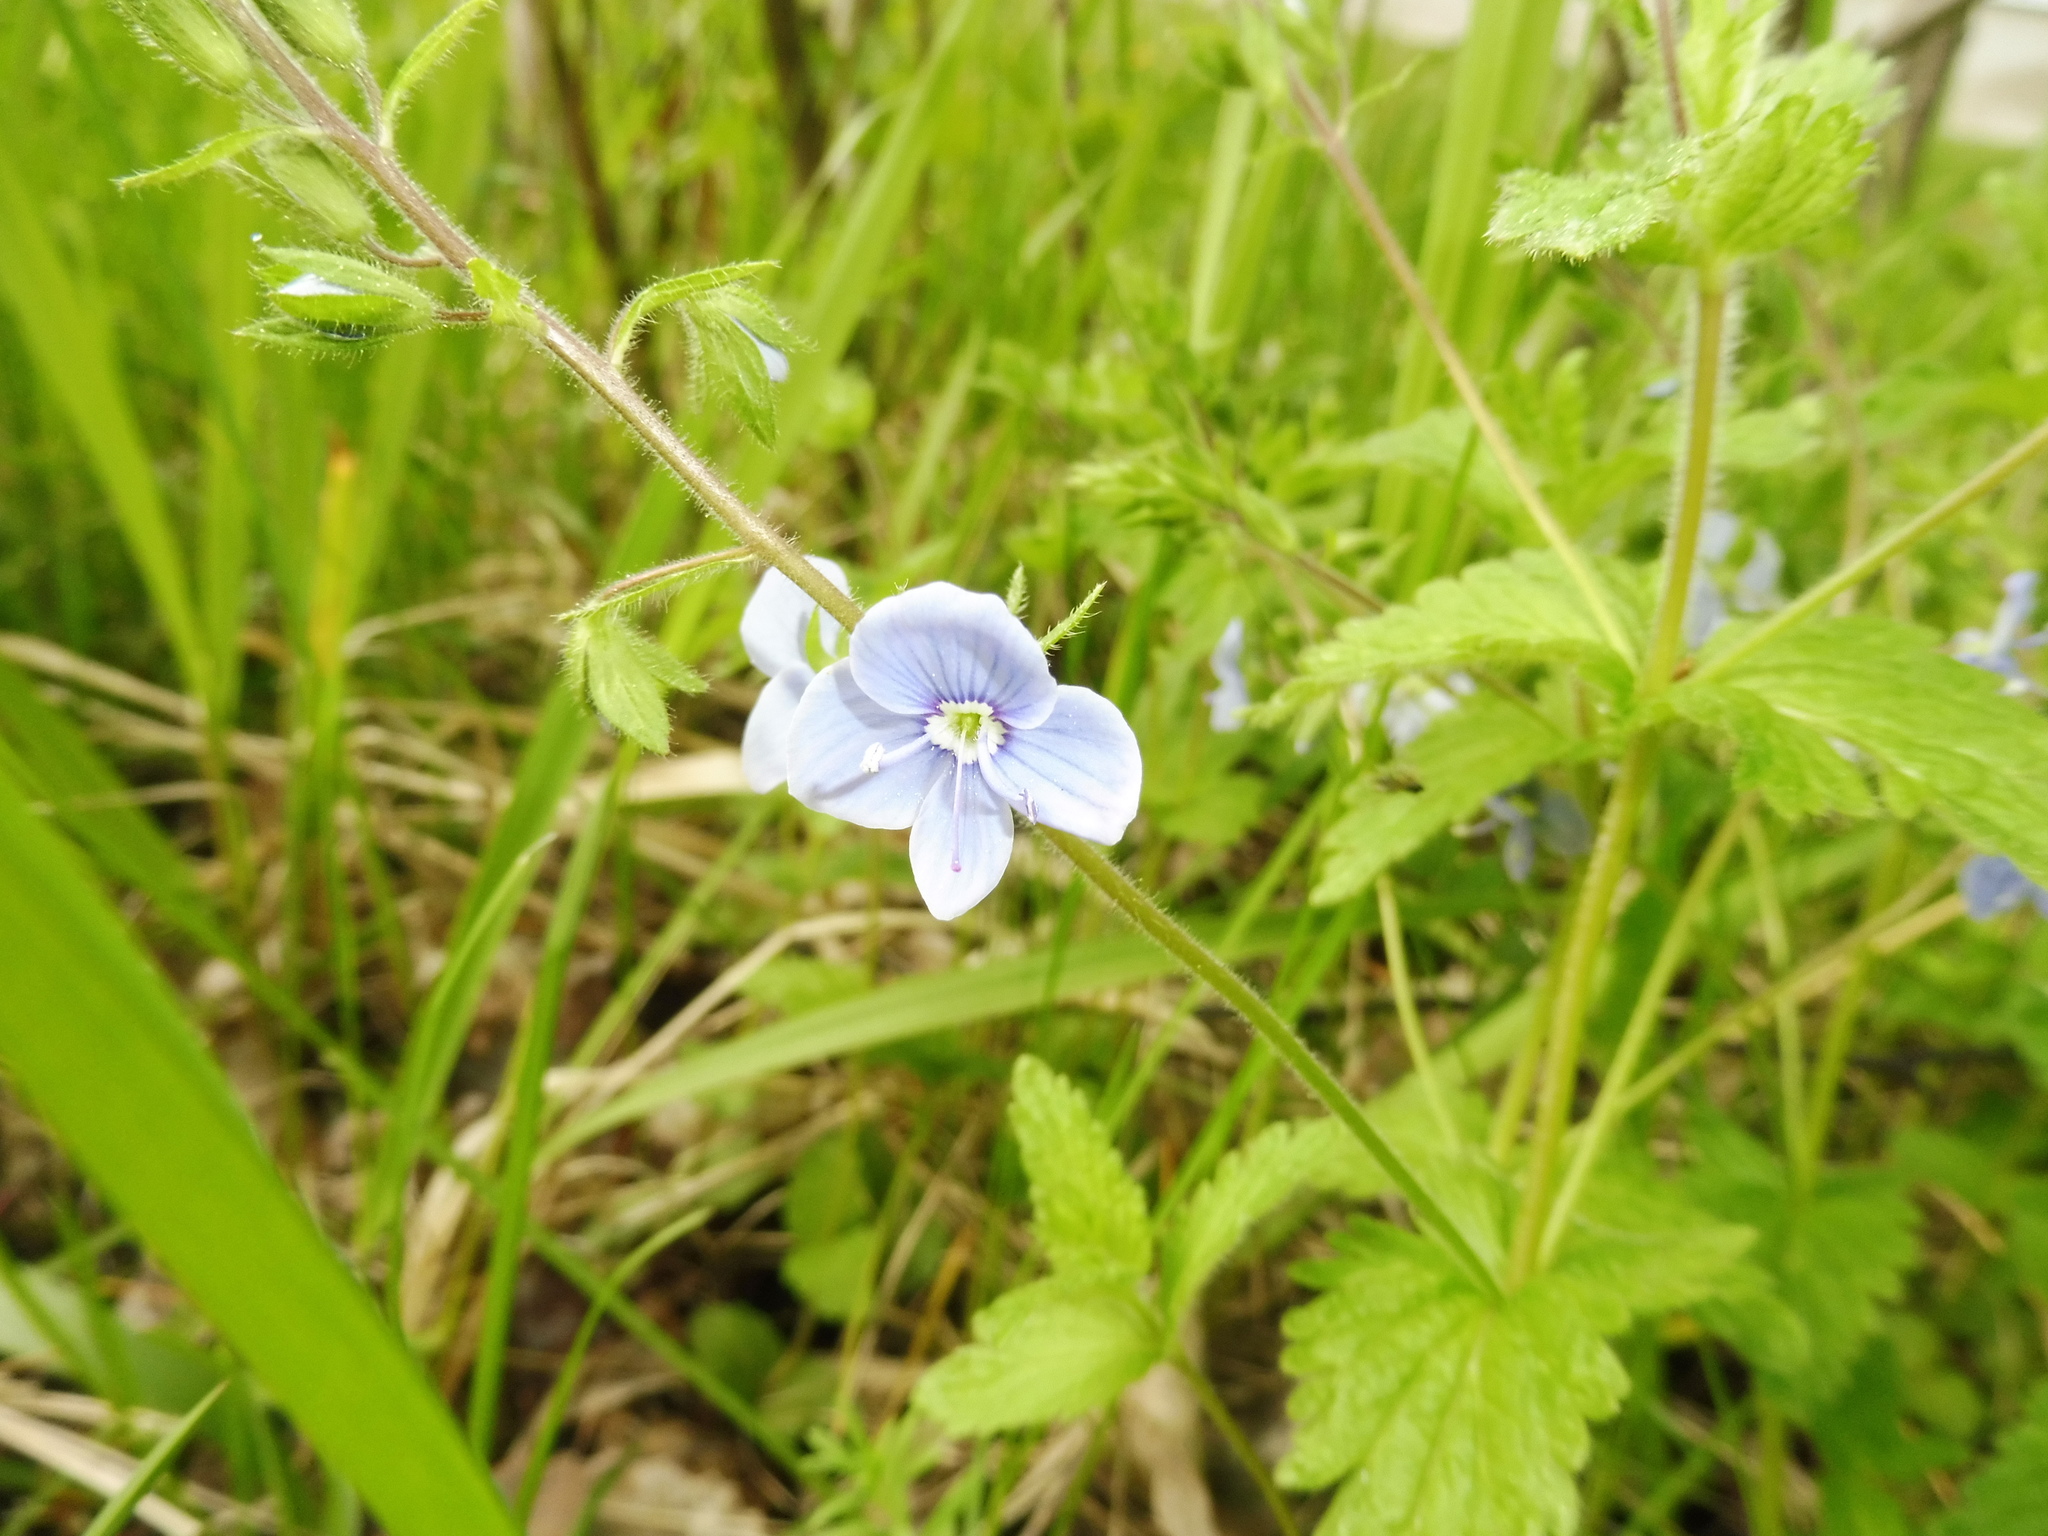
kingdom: Plantae
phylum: Tracheophyta
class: Magnoliopsida
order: Lamiales
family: Plantaginaceae
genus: Veronica
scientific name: Veronica chamaedrys
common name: Germander speedwell
